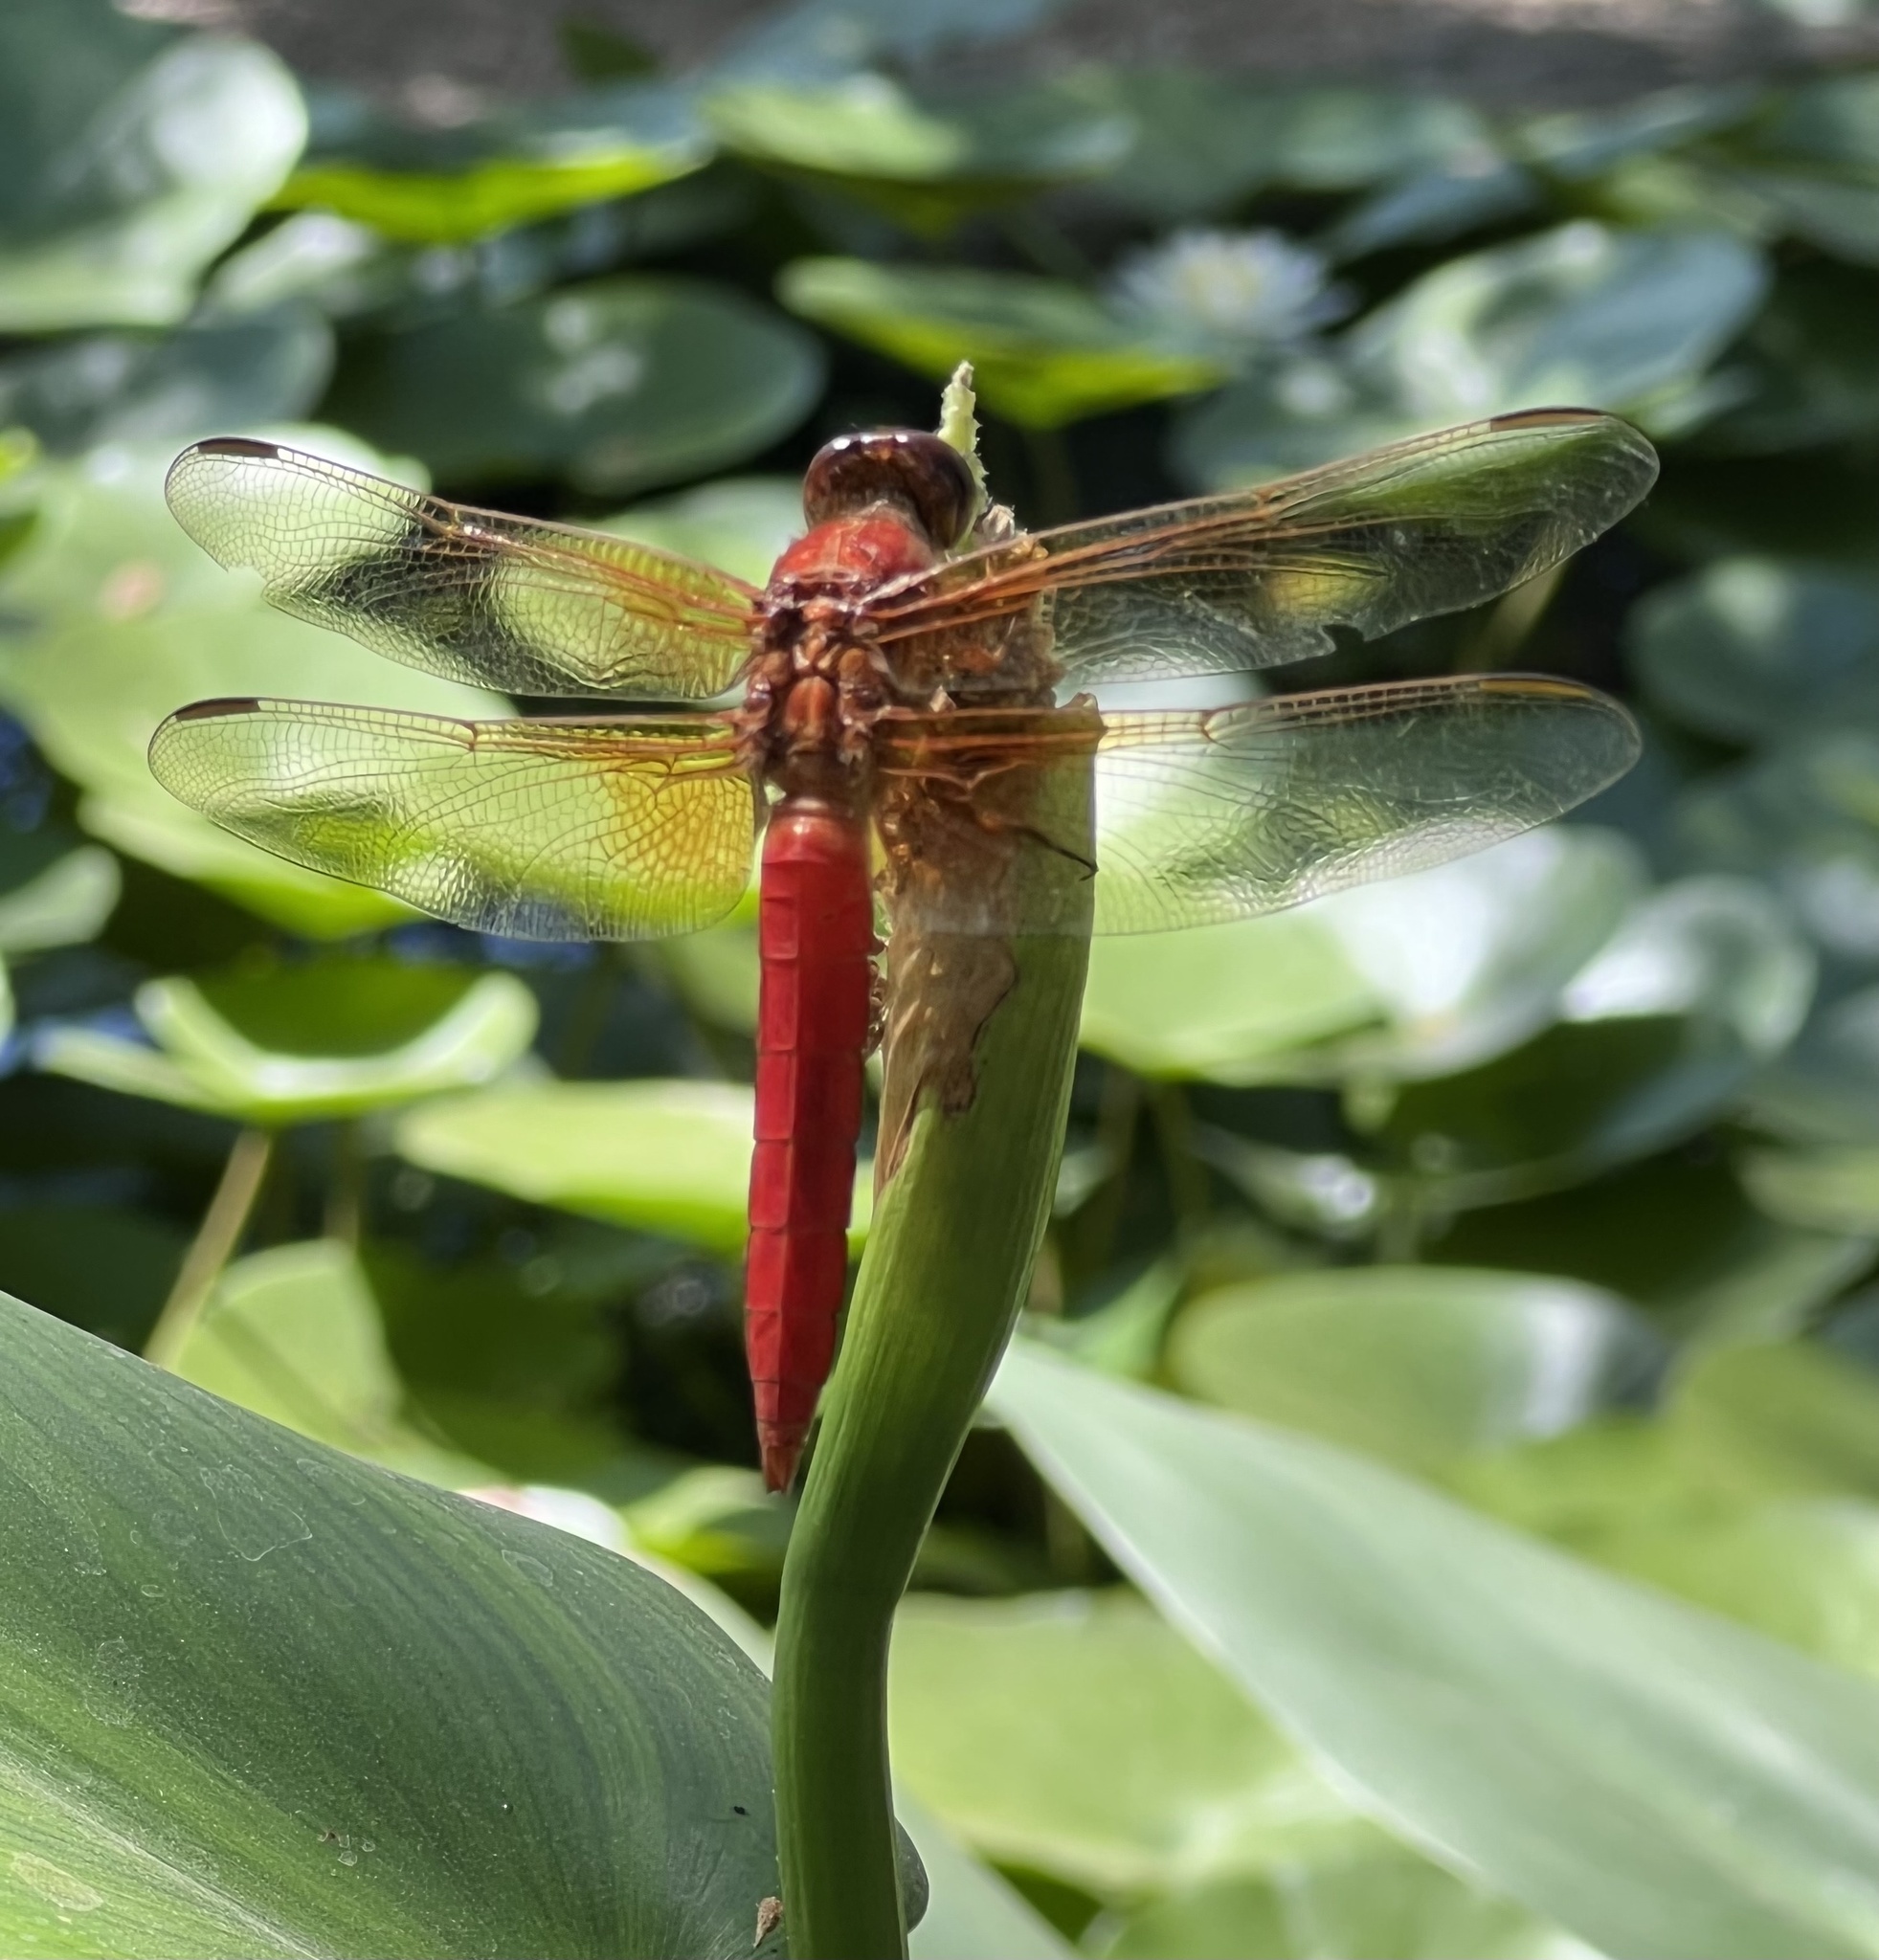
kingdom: Animalia
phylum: Arthropoda
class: Insecta
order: Odonata
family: Libellulidae
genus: Libellula
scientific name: Libellula croceipennis
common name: Neon skimmer
